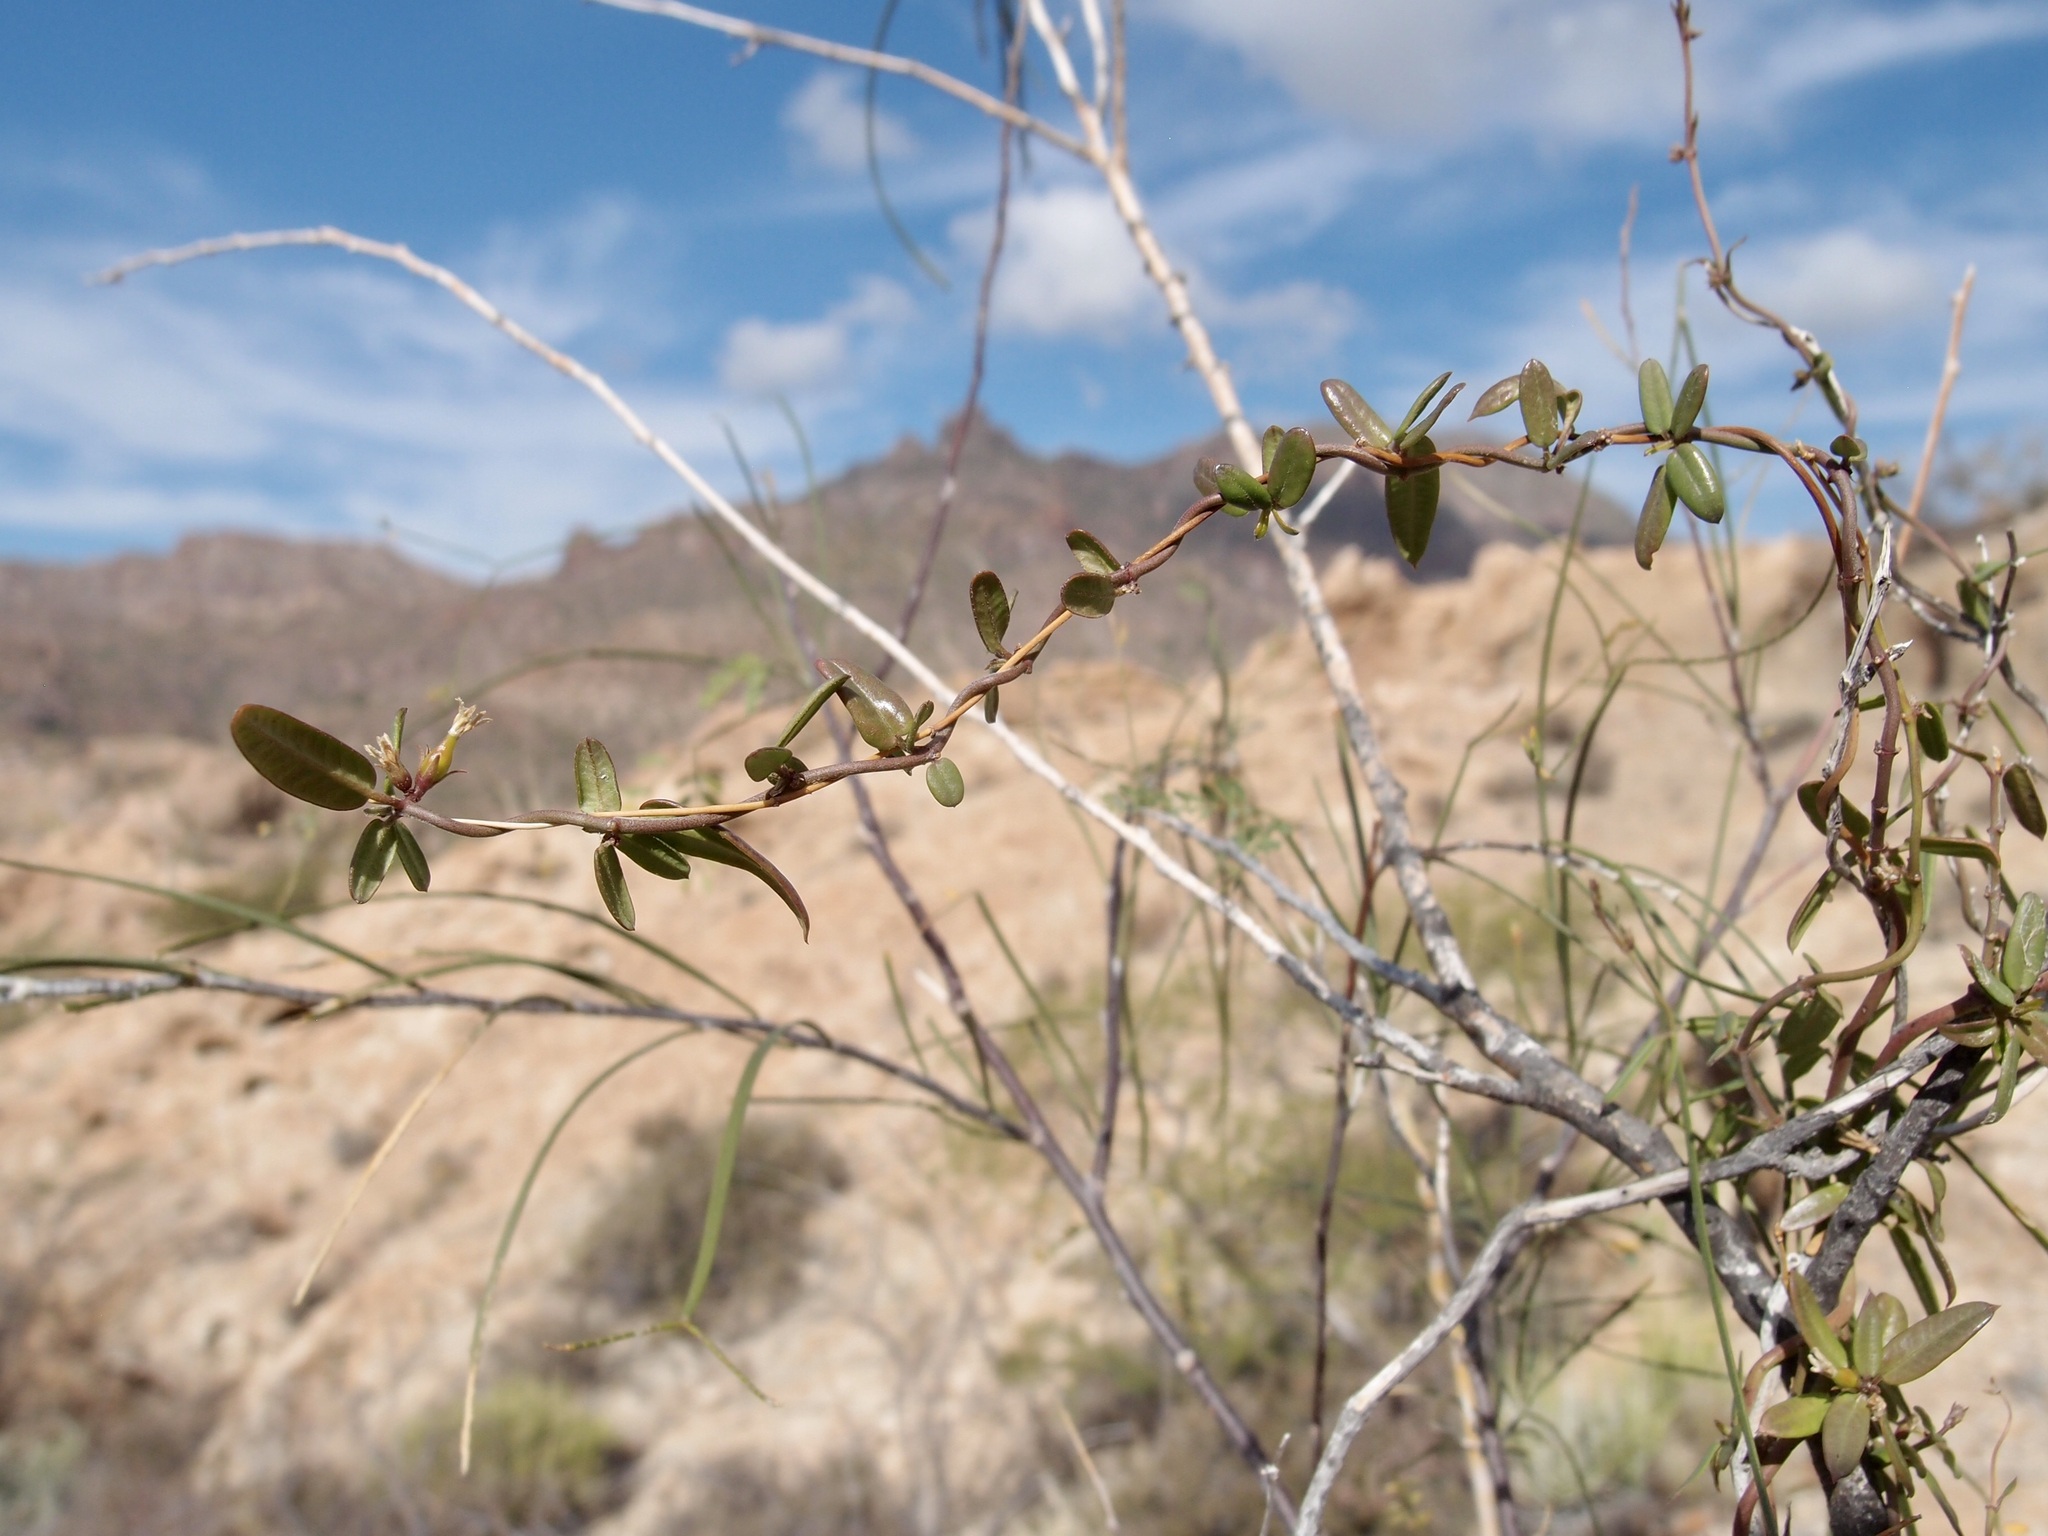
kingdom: Plantae
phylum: Tracheophyta
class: Magnoliopsida
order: Gentianales
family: Apocynaceae
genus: Metastelma
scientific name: Metastelma arizonicum
